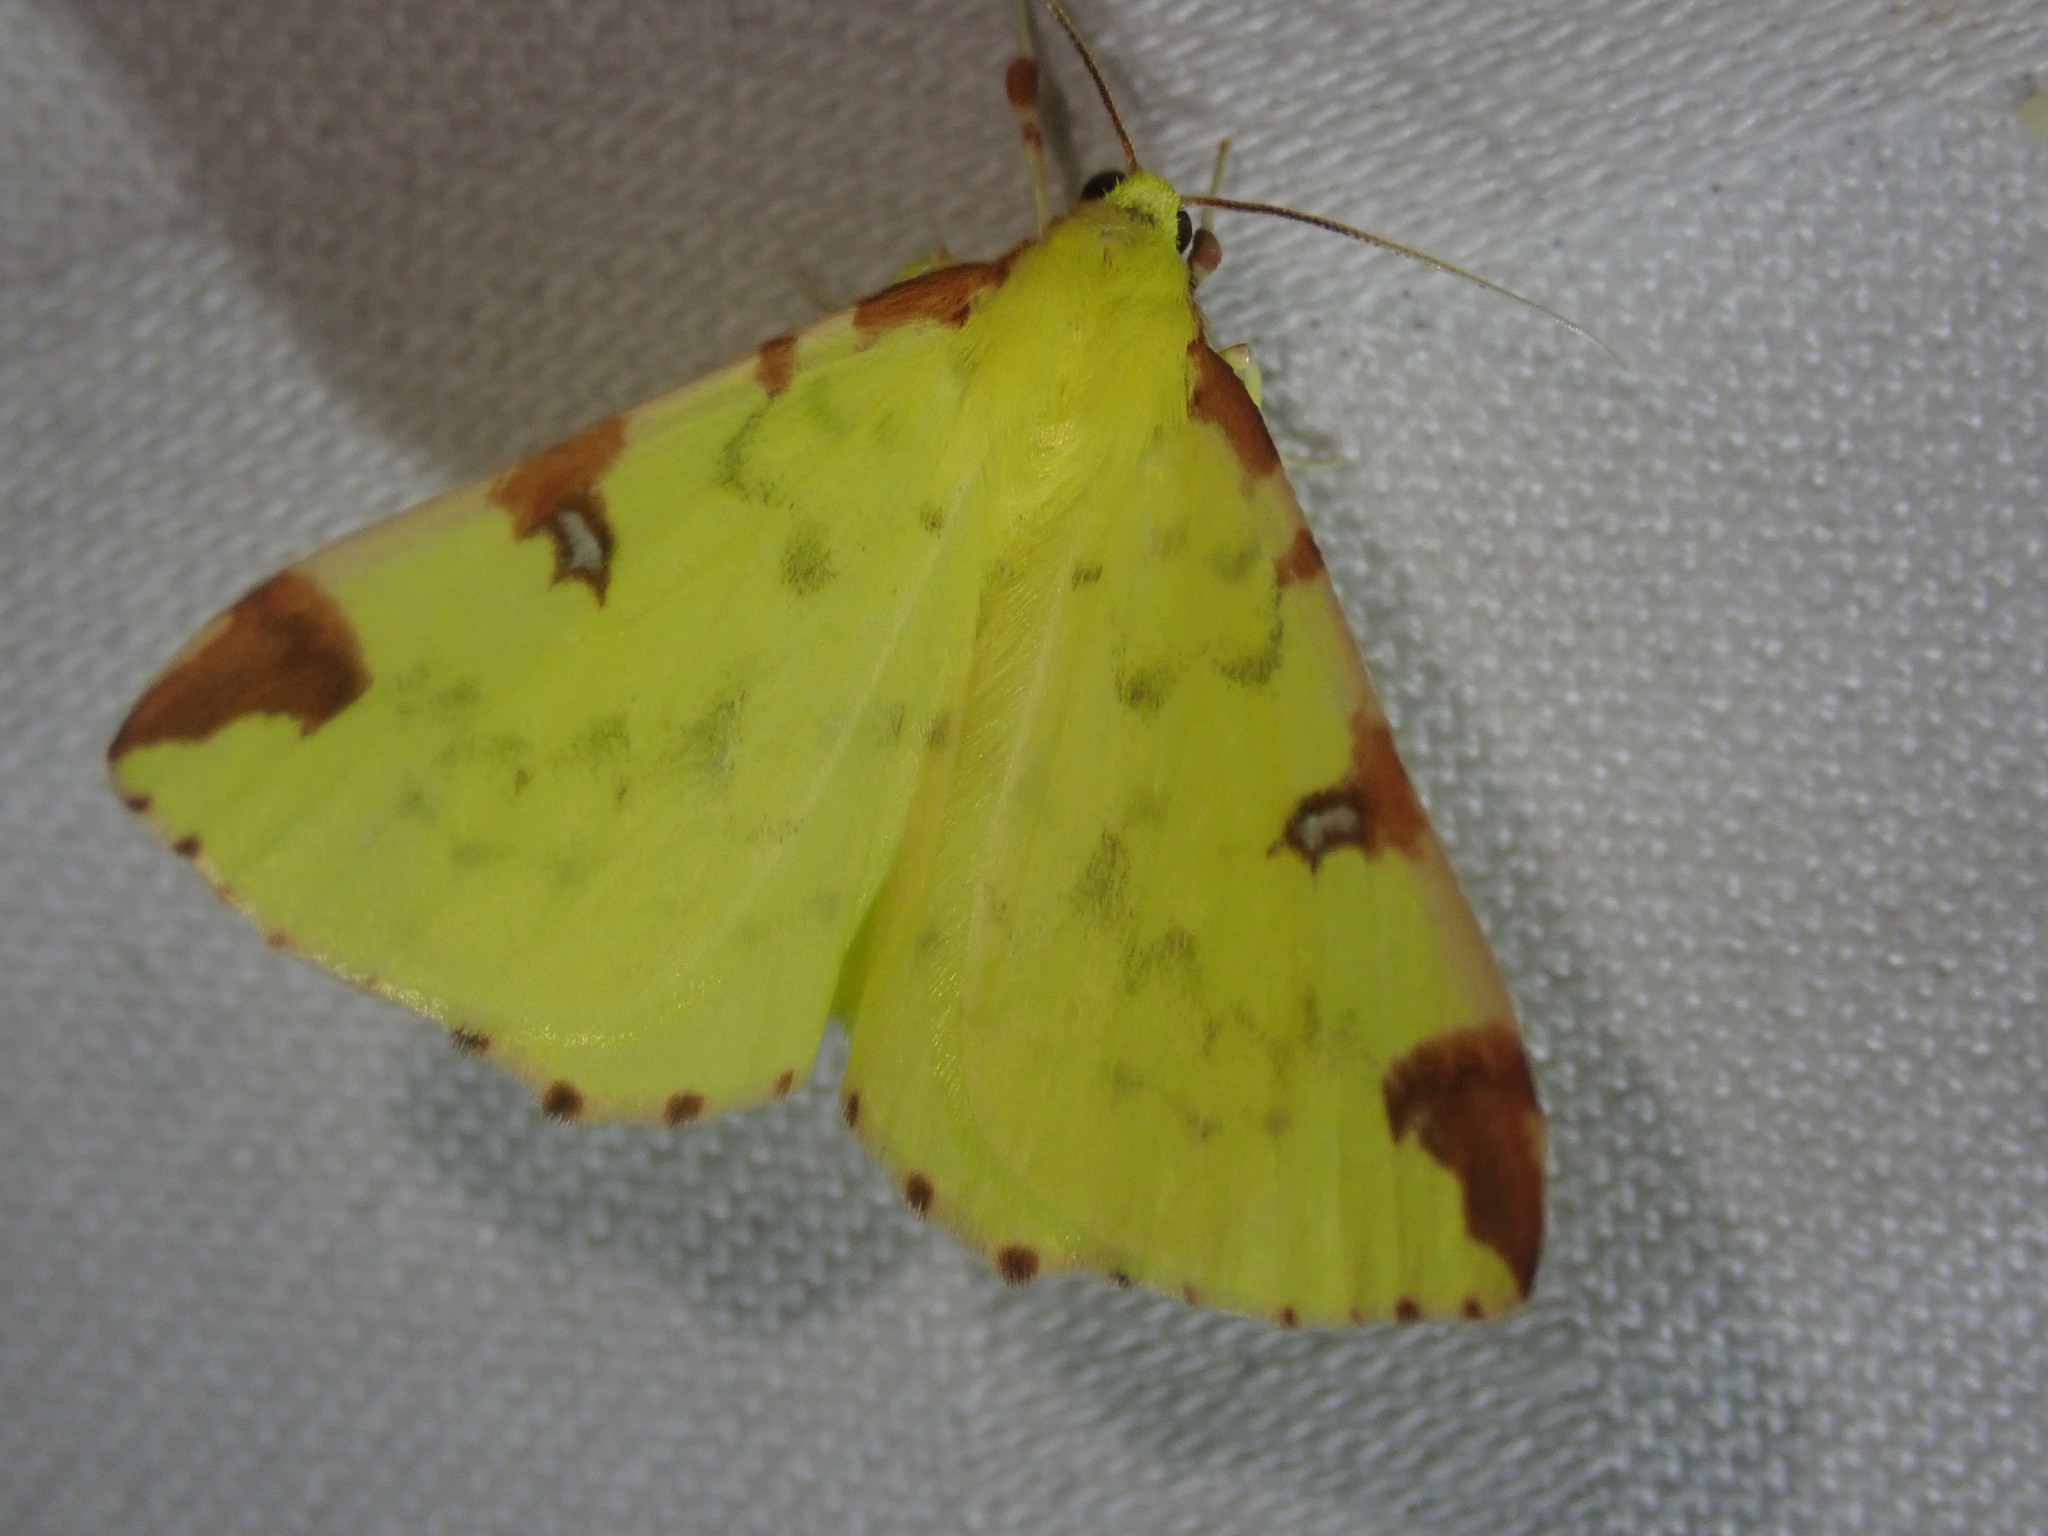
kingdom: Animalia
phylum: Arthropoda
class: Insecta
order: Lepidoptera
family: Geometridae
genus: Opisthograptis
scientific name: Opisthograptis luteolata
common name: Brimstone moth
